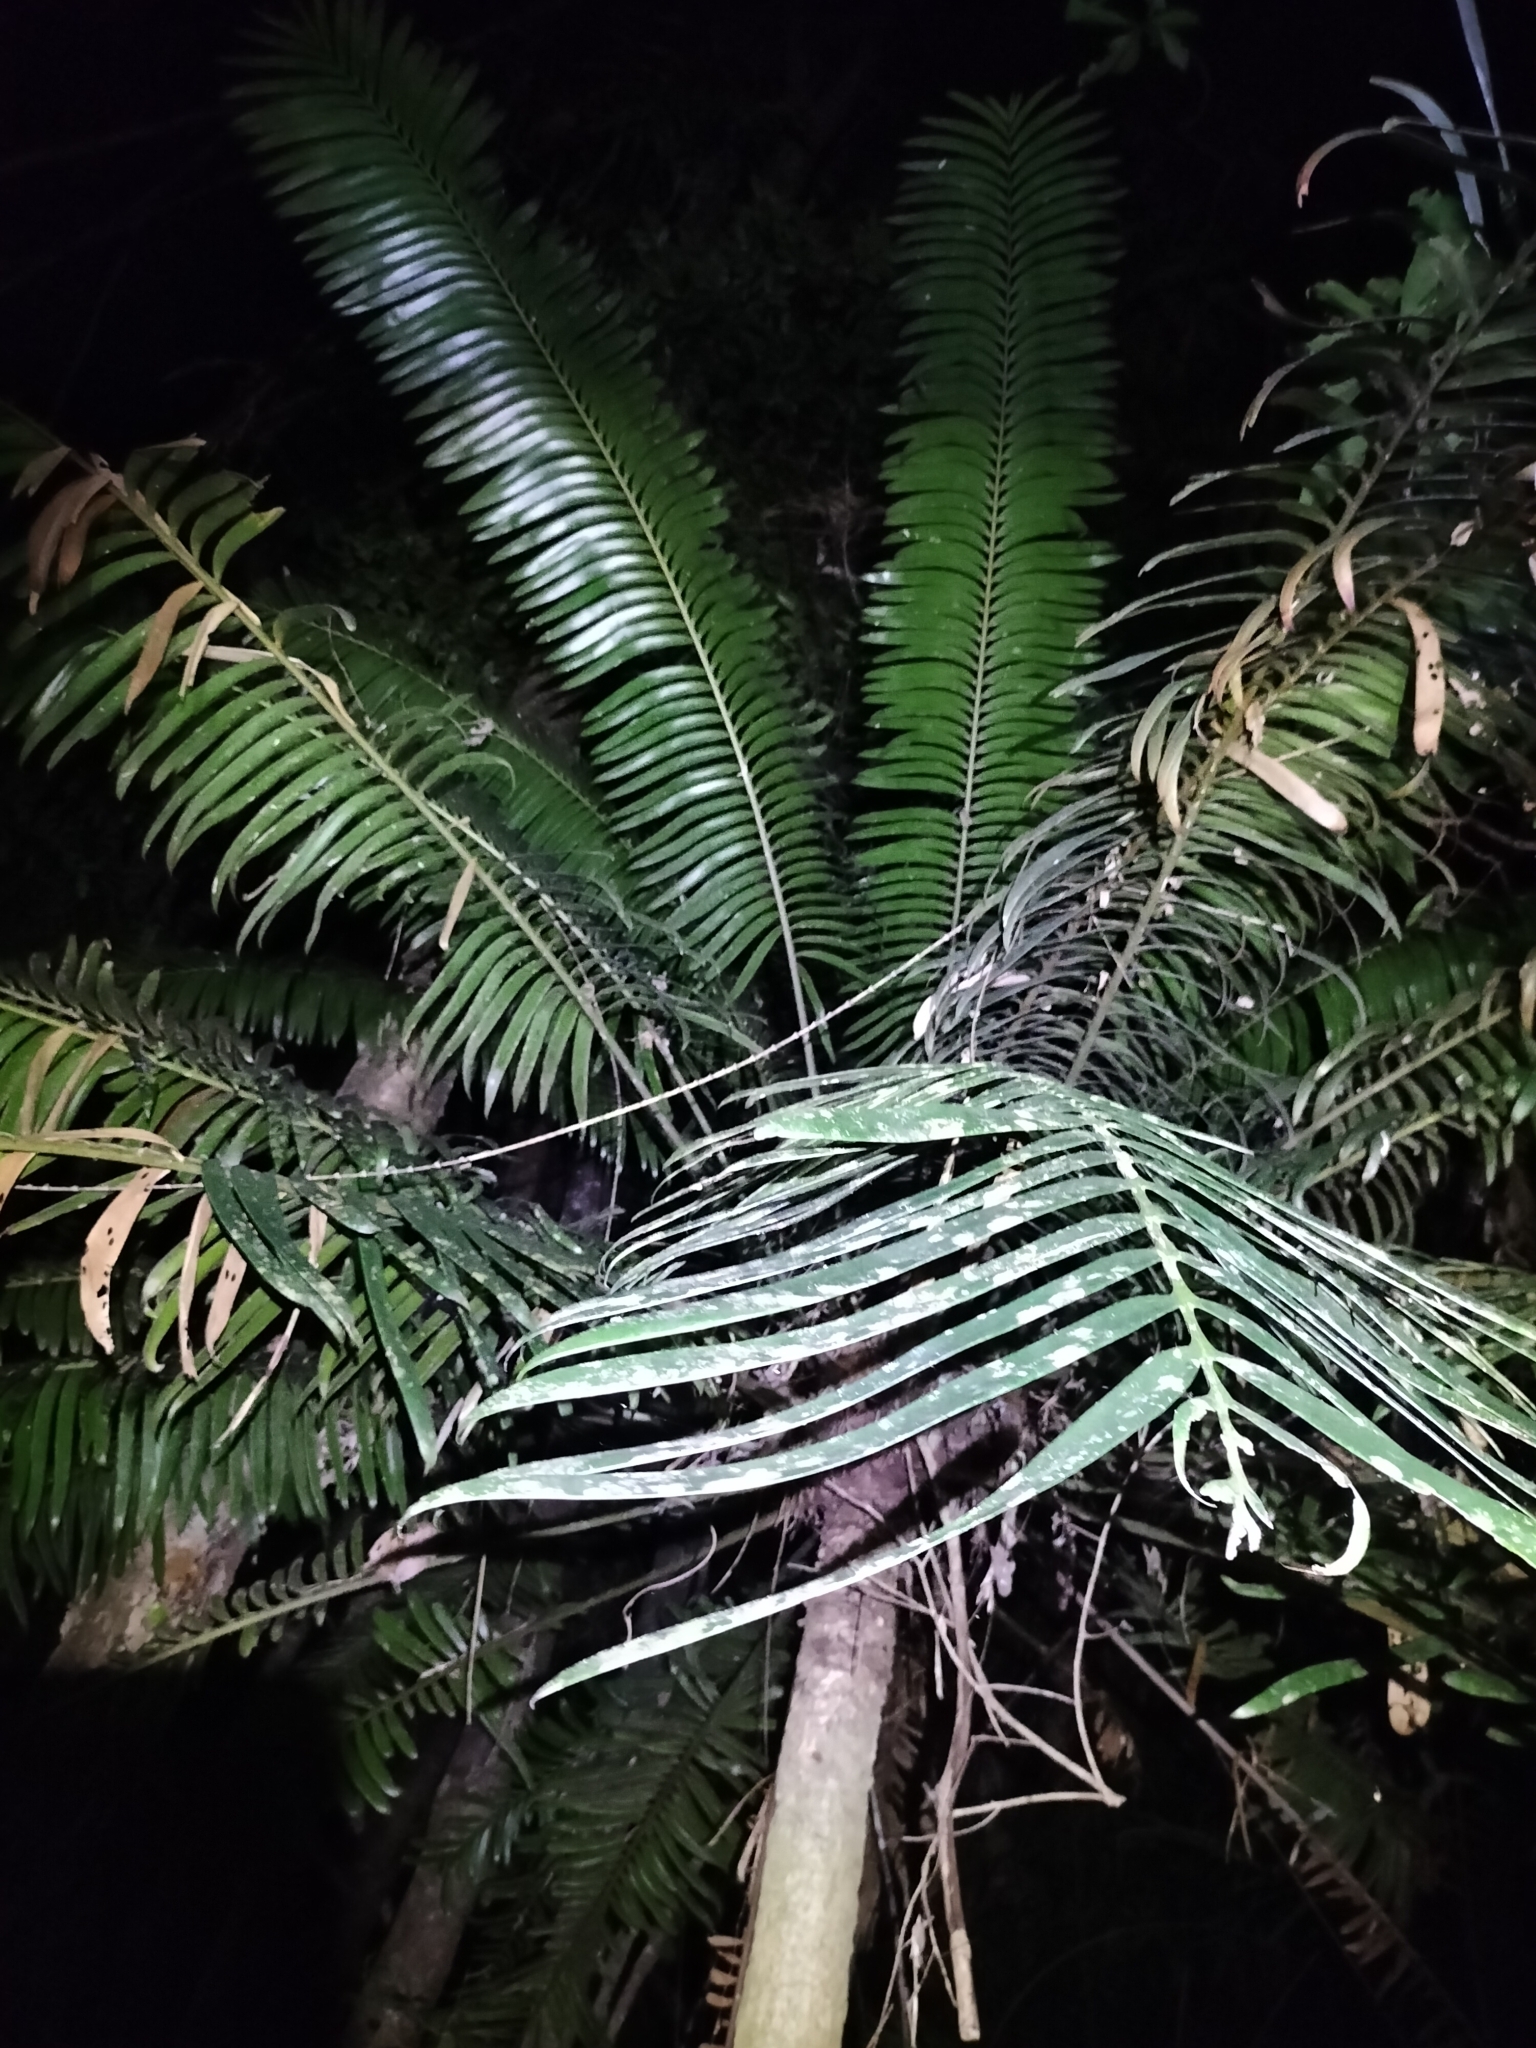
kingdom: Plantae
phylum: Tracheophyta
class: Cycadopsida
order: Cycadales
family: Zamiaceae
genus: Lepidozamia
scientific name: Lepidozamia hopei
